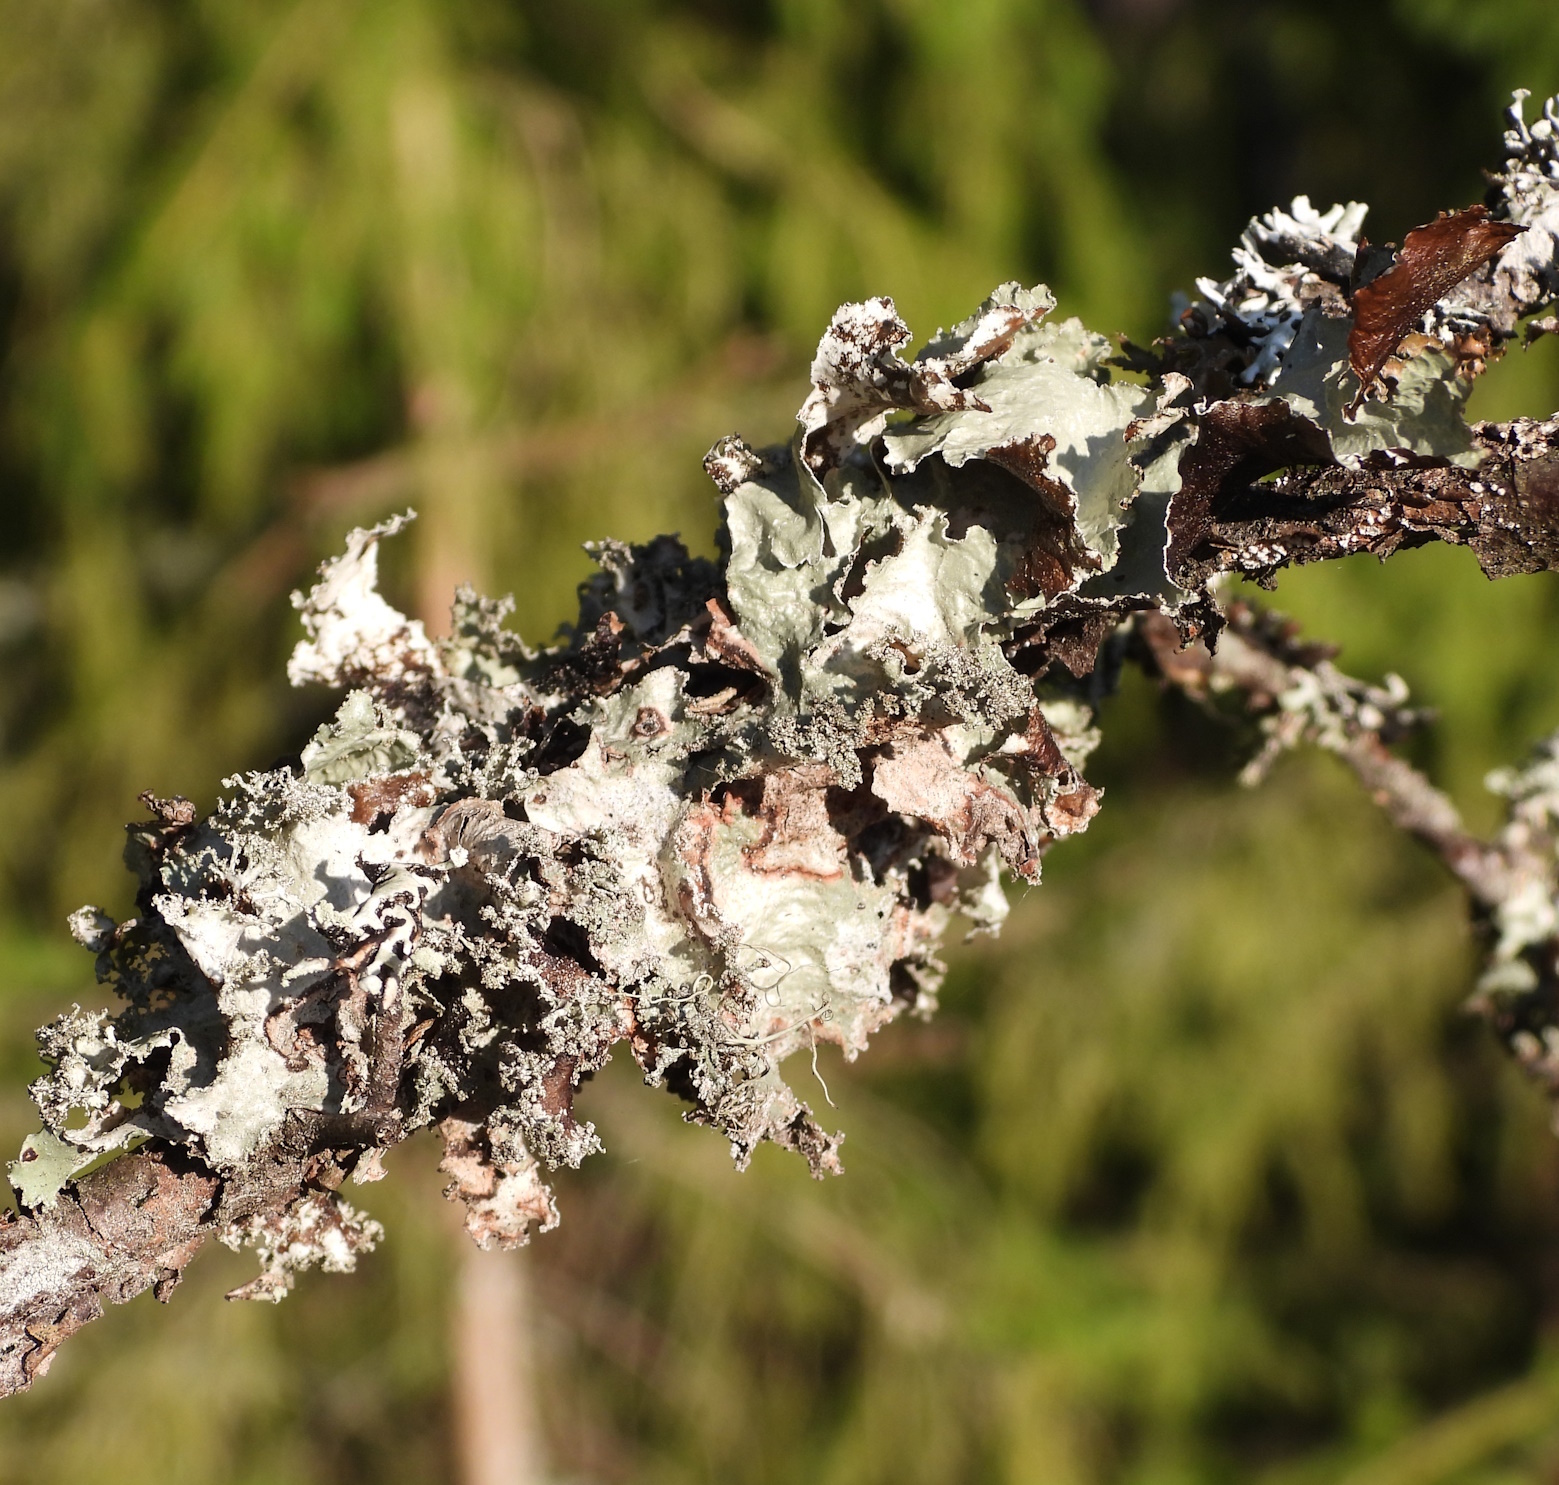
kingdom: Fungi
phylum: Ascomycota
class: Lecanoromycetes
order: Lecanorales
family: Parmeliaceae
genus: Platismatia
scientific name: Platismatia glauca
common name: Varied rag lichen
